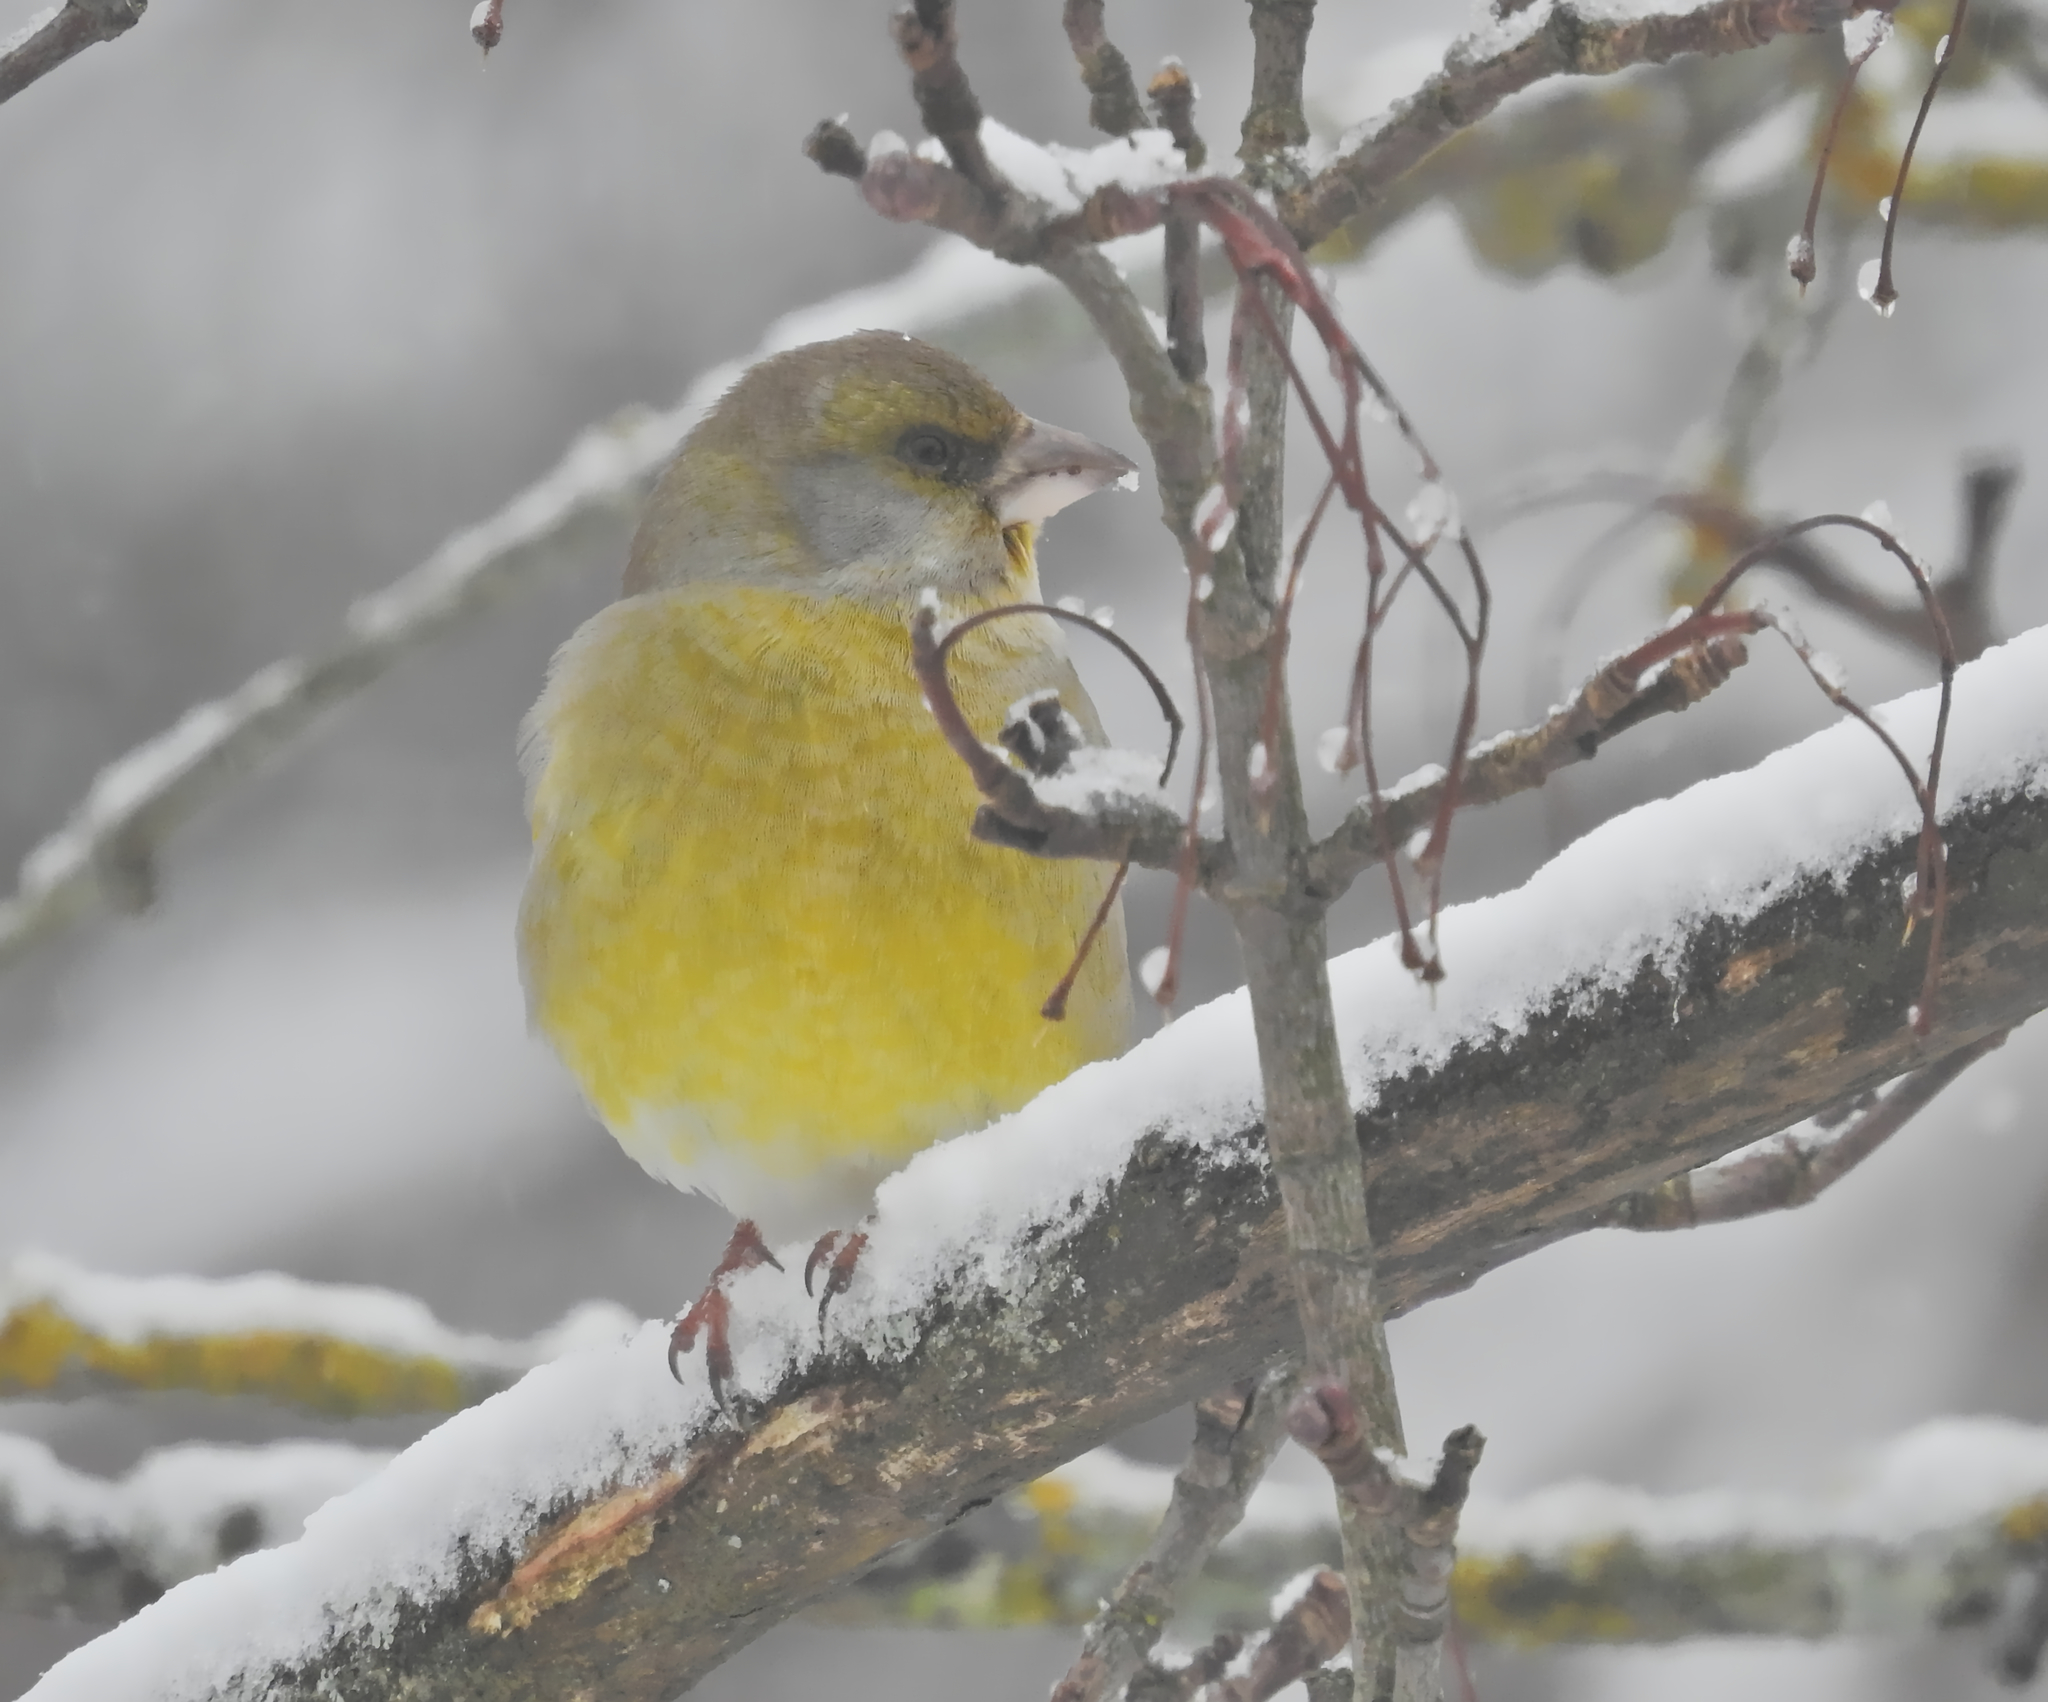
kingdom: Plantae
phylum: Tracheophyta
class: Liliopsida
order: Poales
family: Poaceae
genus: Chloris
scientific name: Chloris chloris
